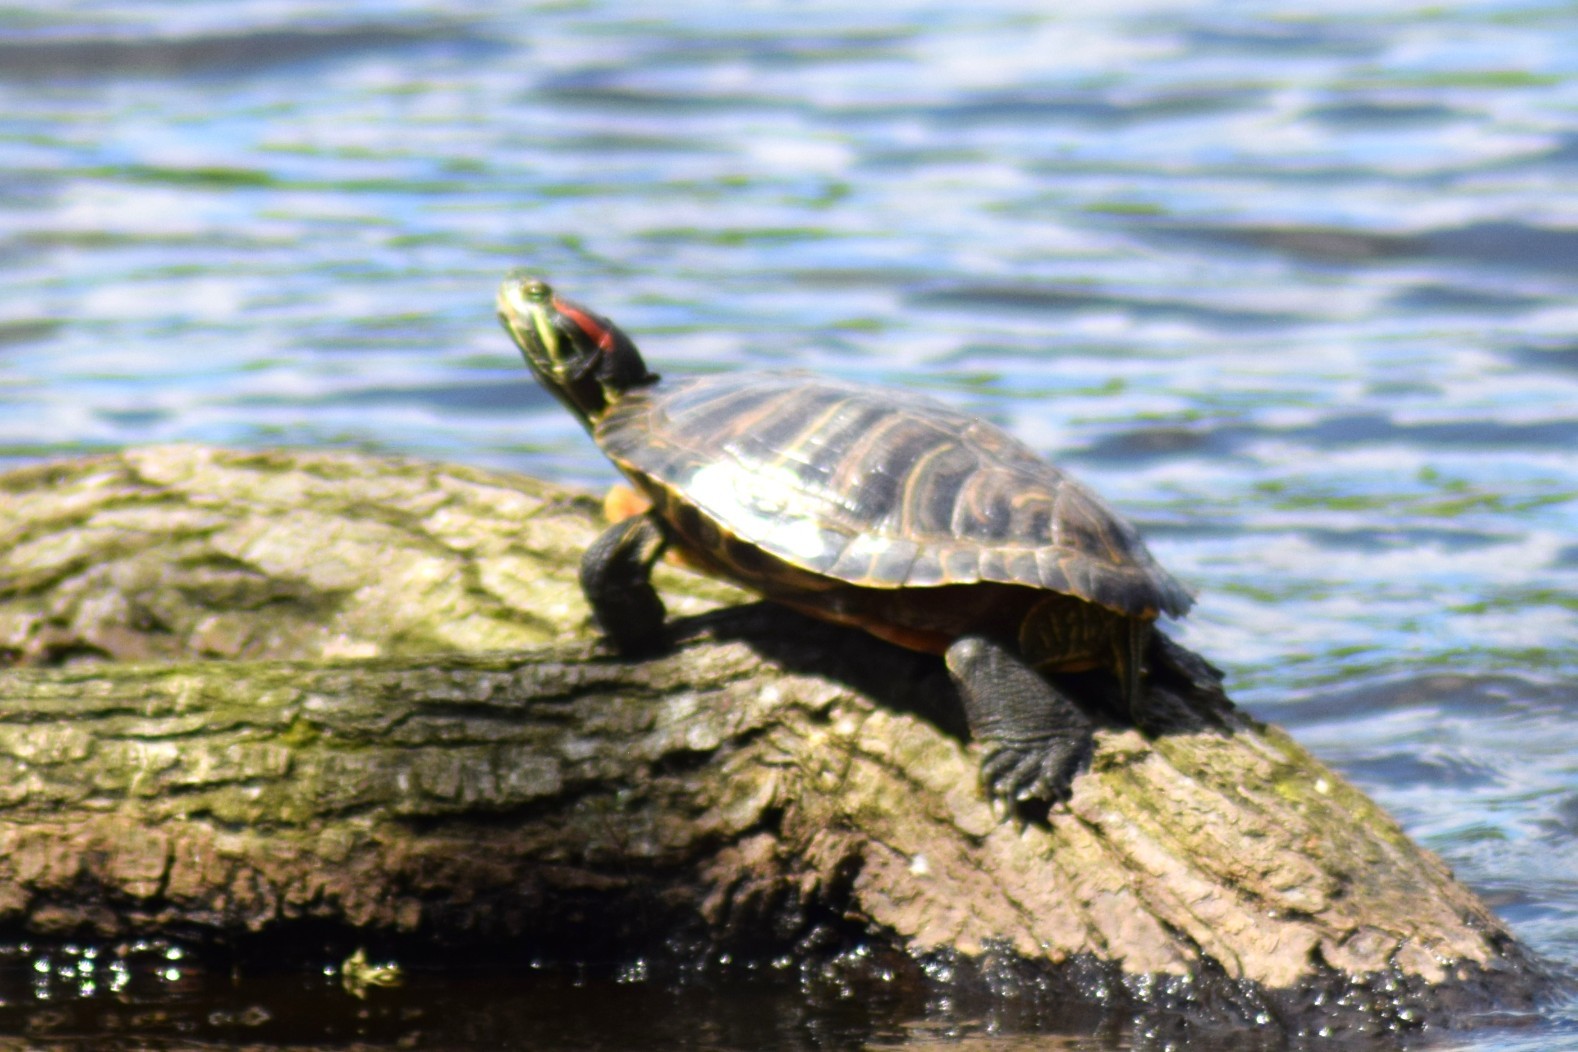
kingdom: Animalia
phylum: Chordata
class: Testudines
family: Emydidae
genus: Trachemys
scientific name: Trachemys scripta
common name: Slider
